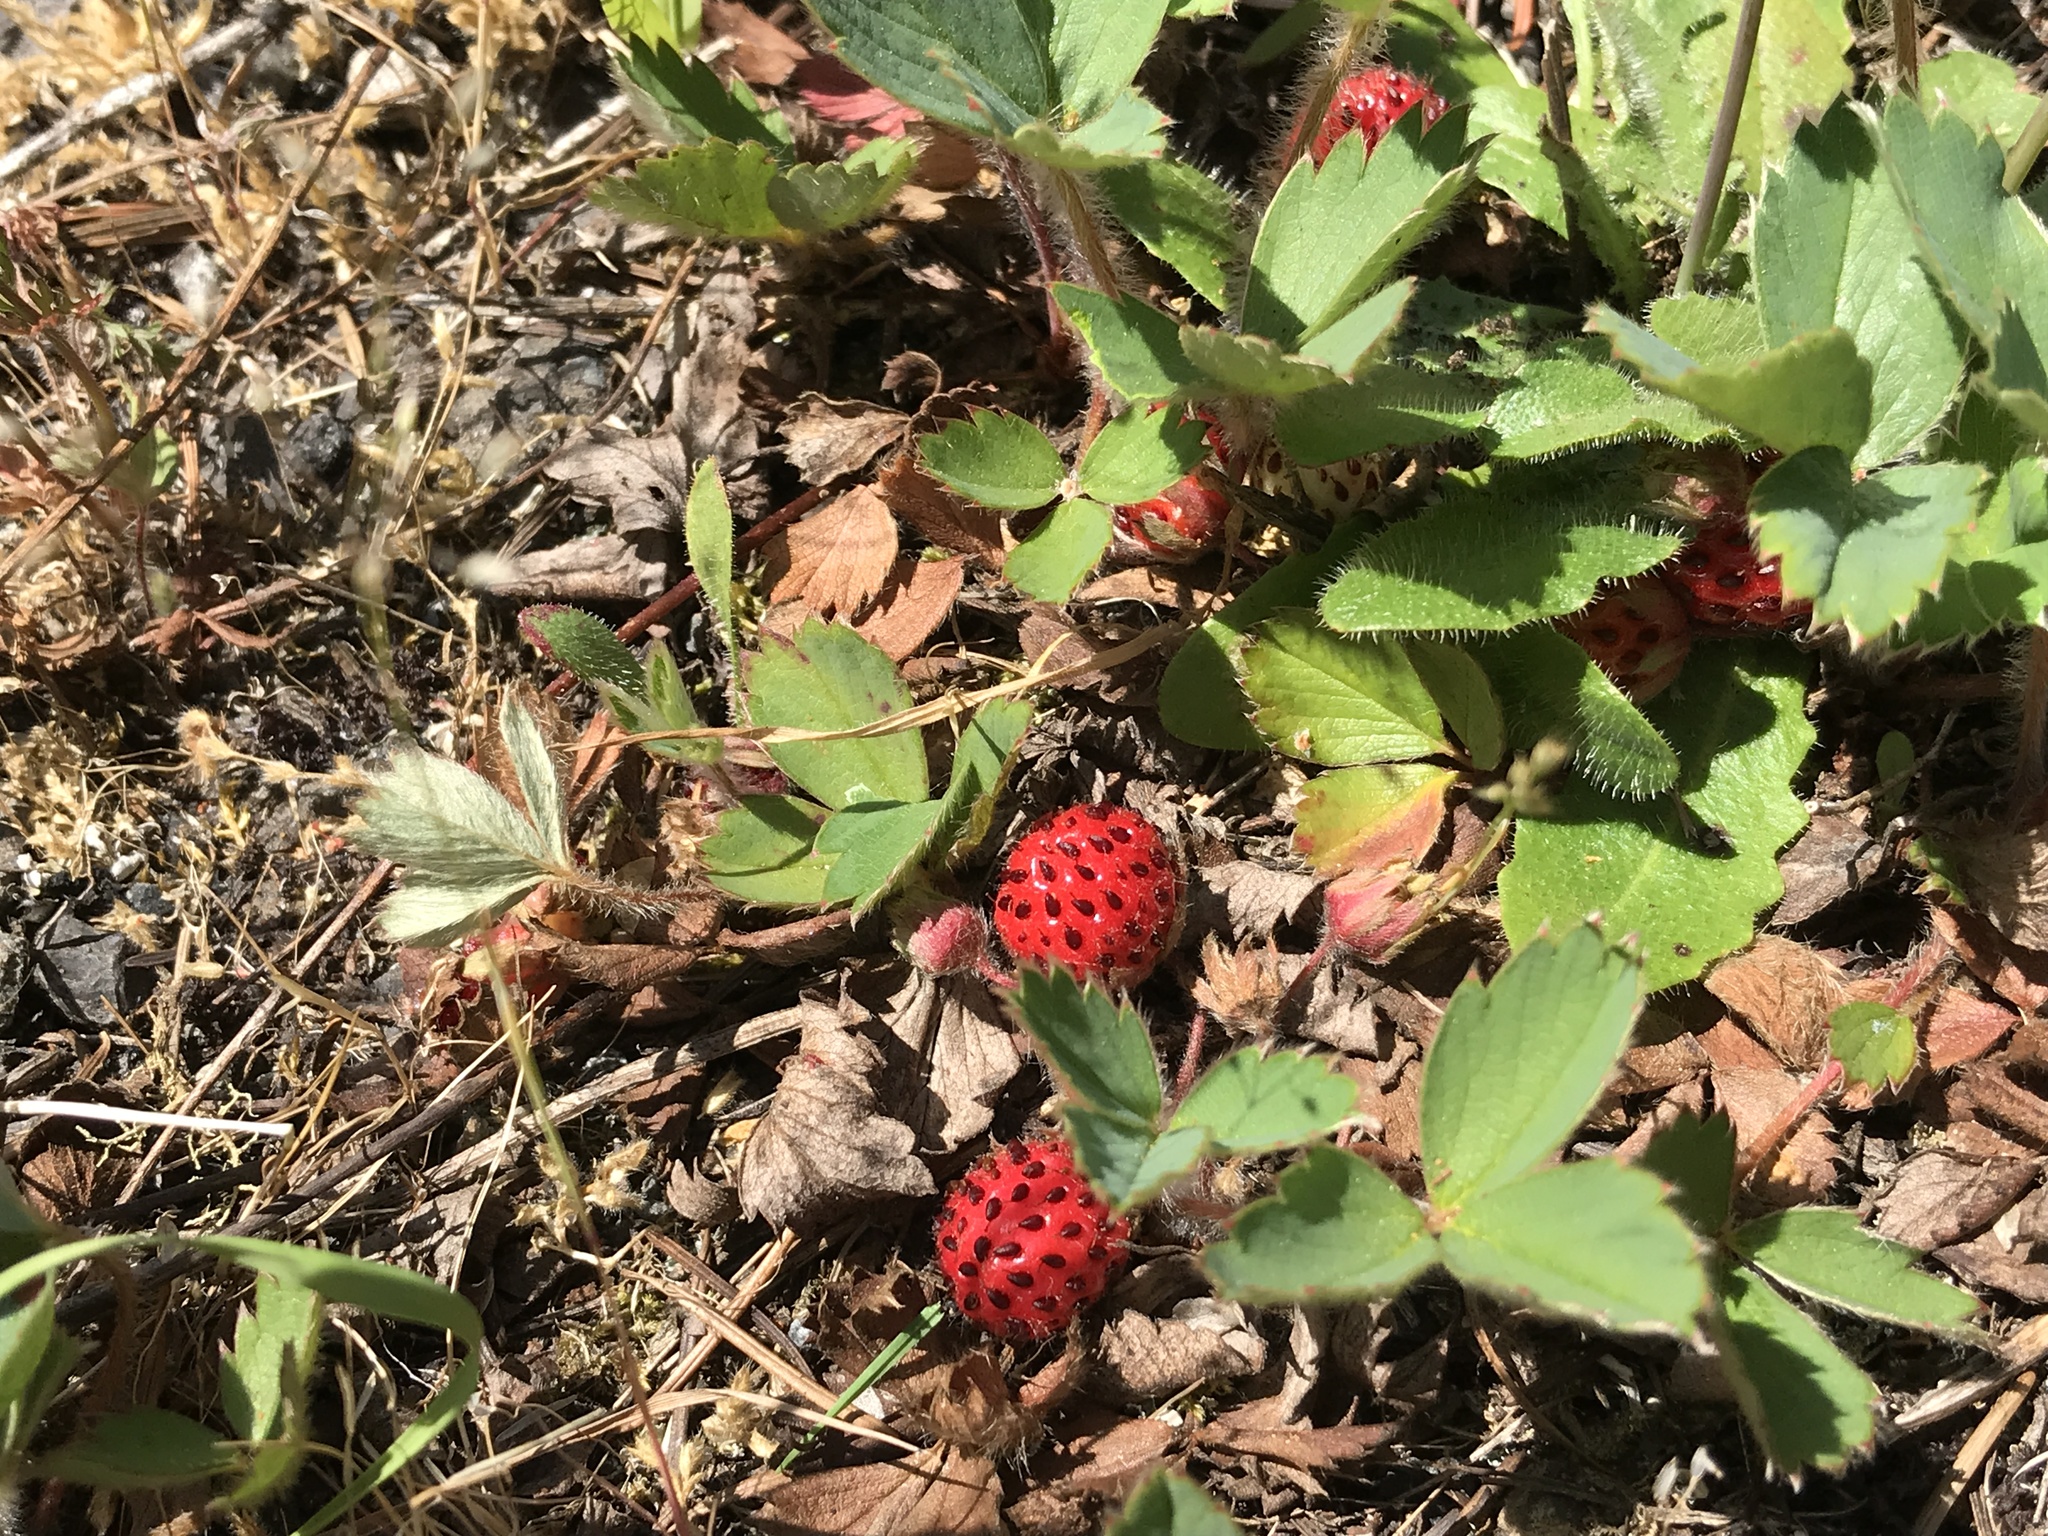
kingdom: Plantae
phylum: Tracheophyta
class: Magnoliopsida
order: Rosales
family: Rosaceae
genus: Fragaria
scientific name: Fragaria ananassa
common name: Garden strawberry
